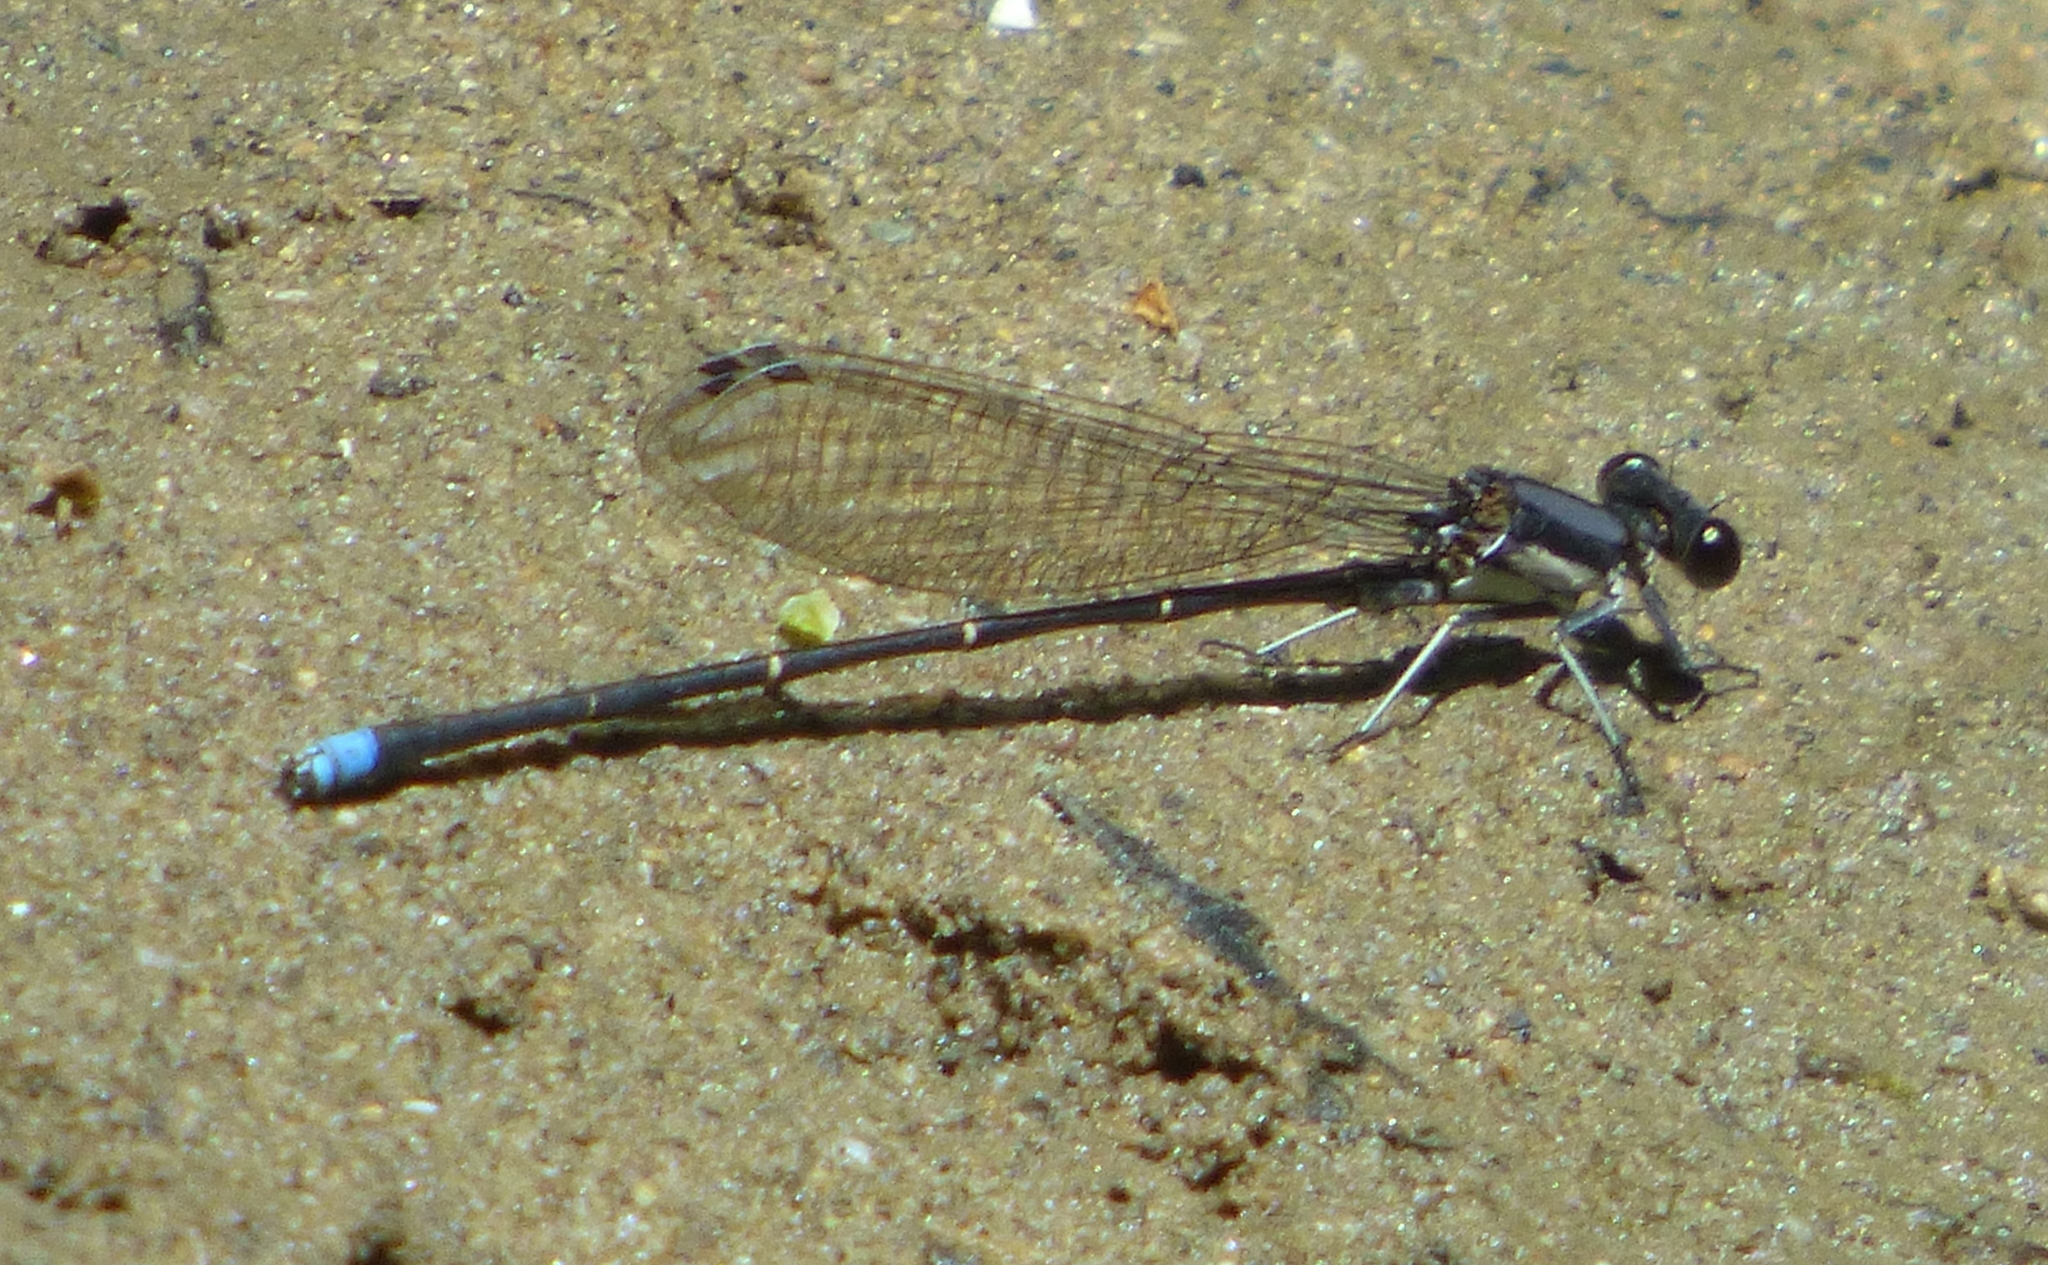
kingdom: Animalia
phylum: Arthropoda
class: Insecta
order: Odonata
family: Coenagrionidae
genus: Argia
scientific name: Argia tibialis
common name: Blue-tipped dancer
